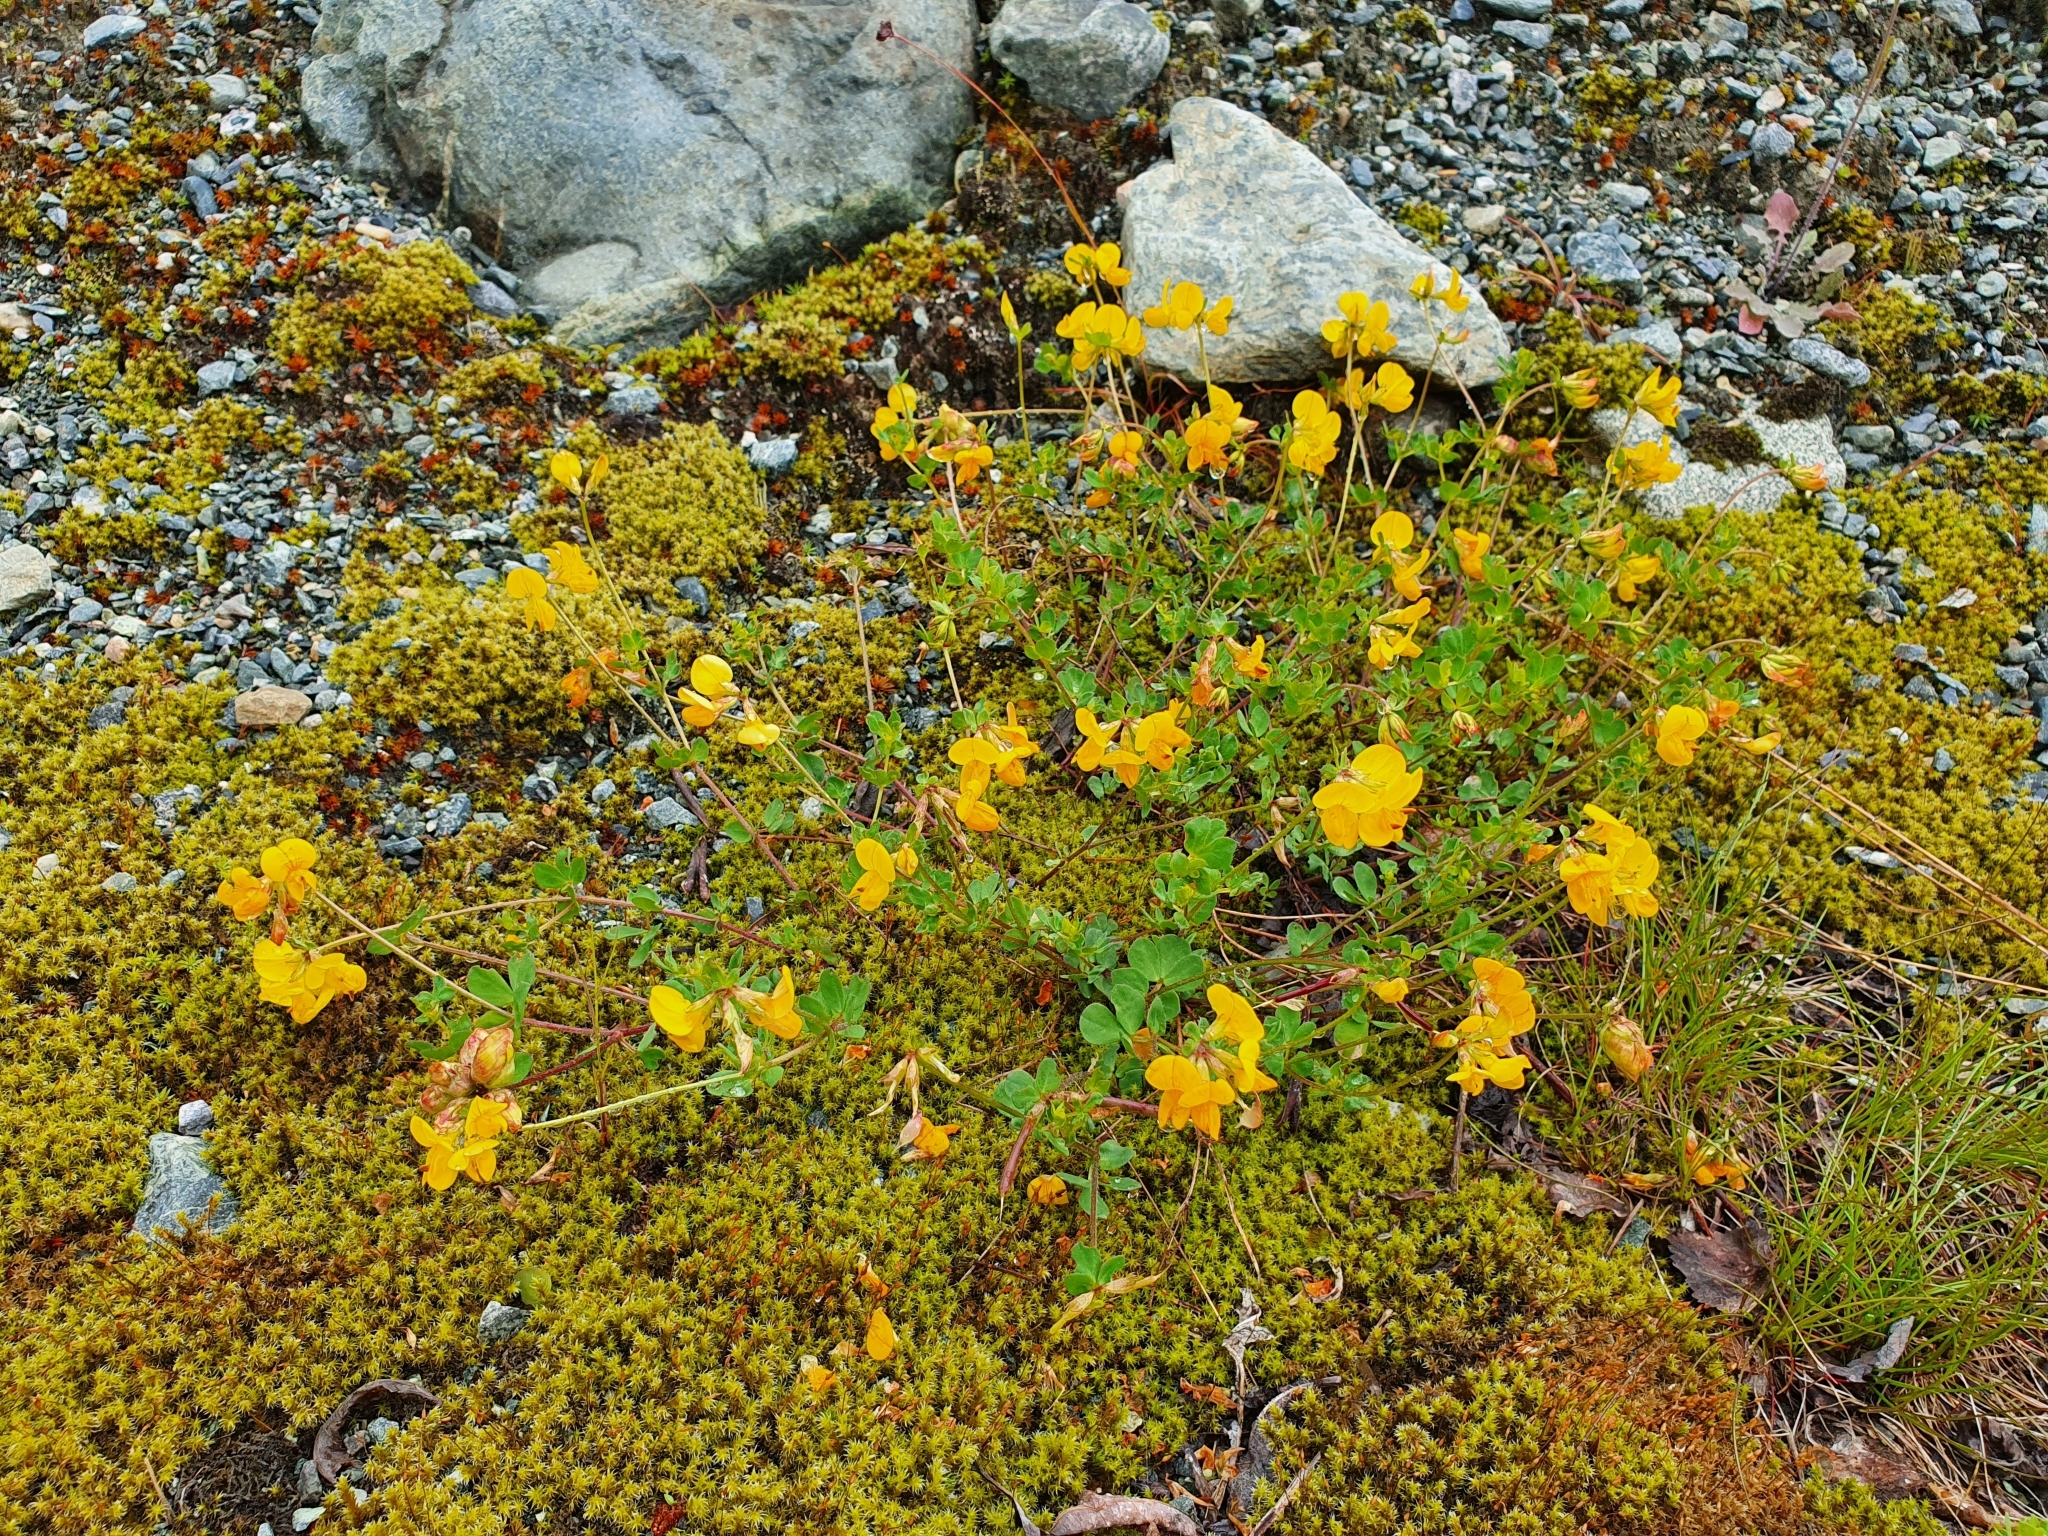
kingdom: Plantae
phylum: Tracheophyta
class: Magnoliopsida
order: Fabales
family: Fabaceae
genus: Lotus
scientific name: Lotus corniculatus
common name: Common bird's-foot-trefoil
